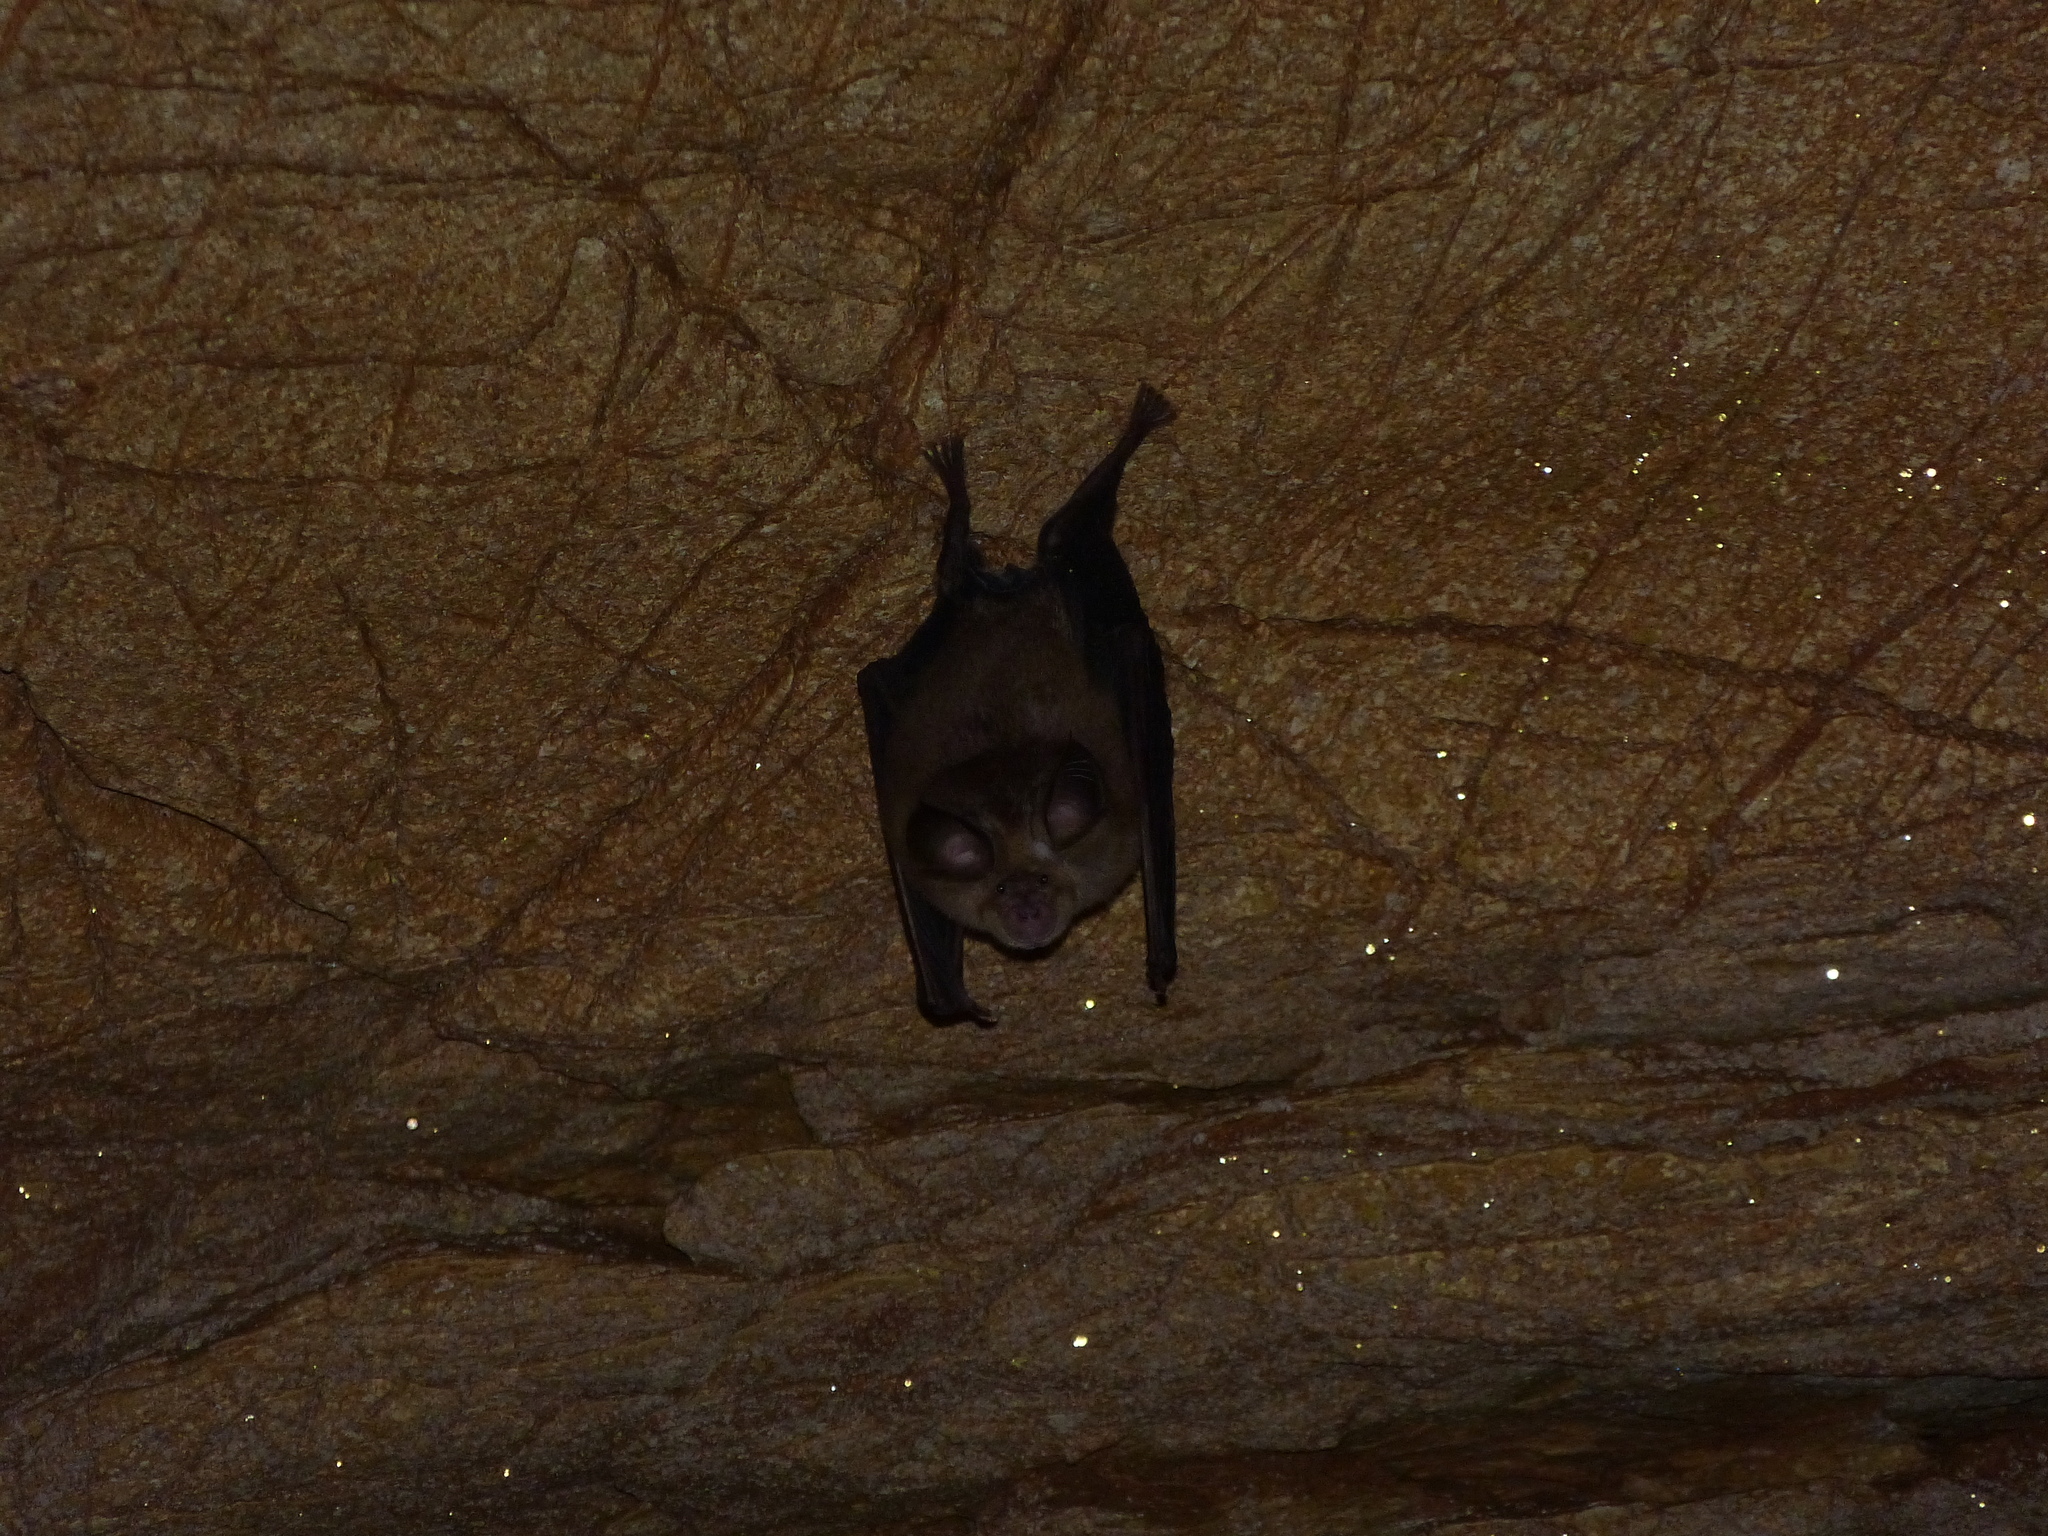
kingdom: Animalia
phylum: Chordata
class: Mammalia
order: Chiroptera
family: Rhinolophidae
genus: Rhinolophus
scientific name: Rhinolophus euryale
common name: Mediterranean horseshoe bat
